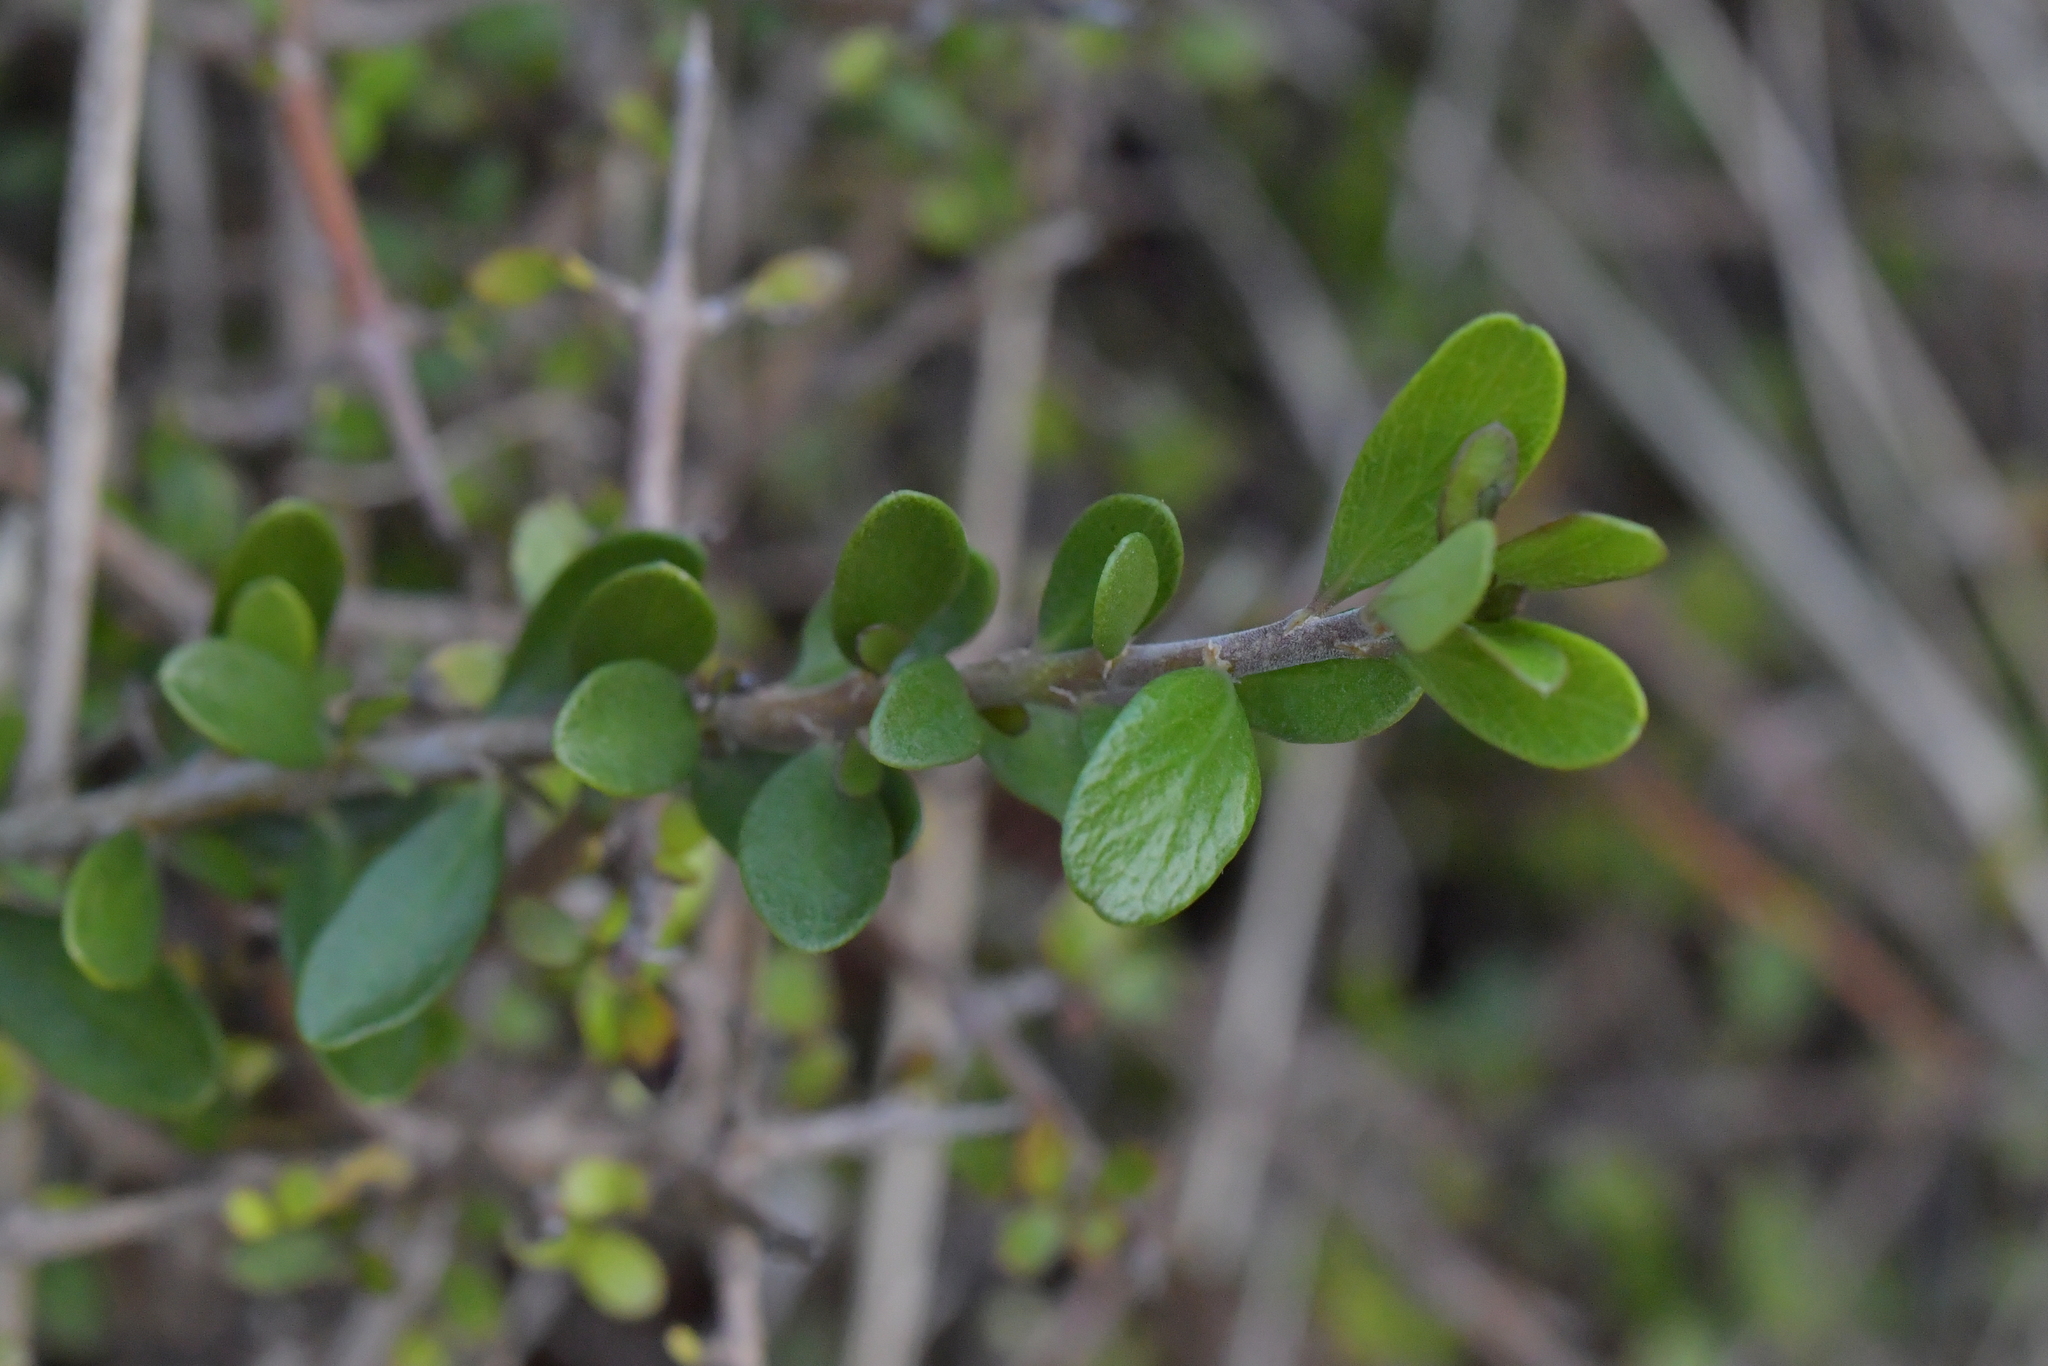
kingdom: Plantae
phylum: Tracheophyta
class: Magnoliopsida
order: Malpighiales
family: Violaceae
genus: Melicytus
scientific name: Melicytus crassifolius
